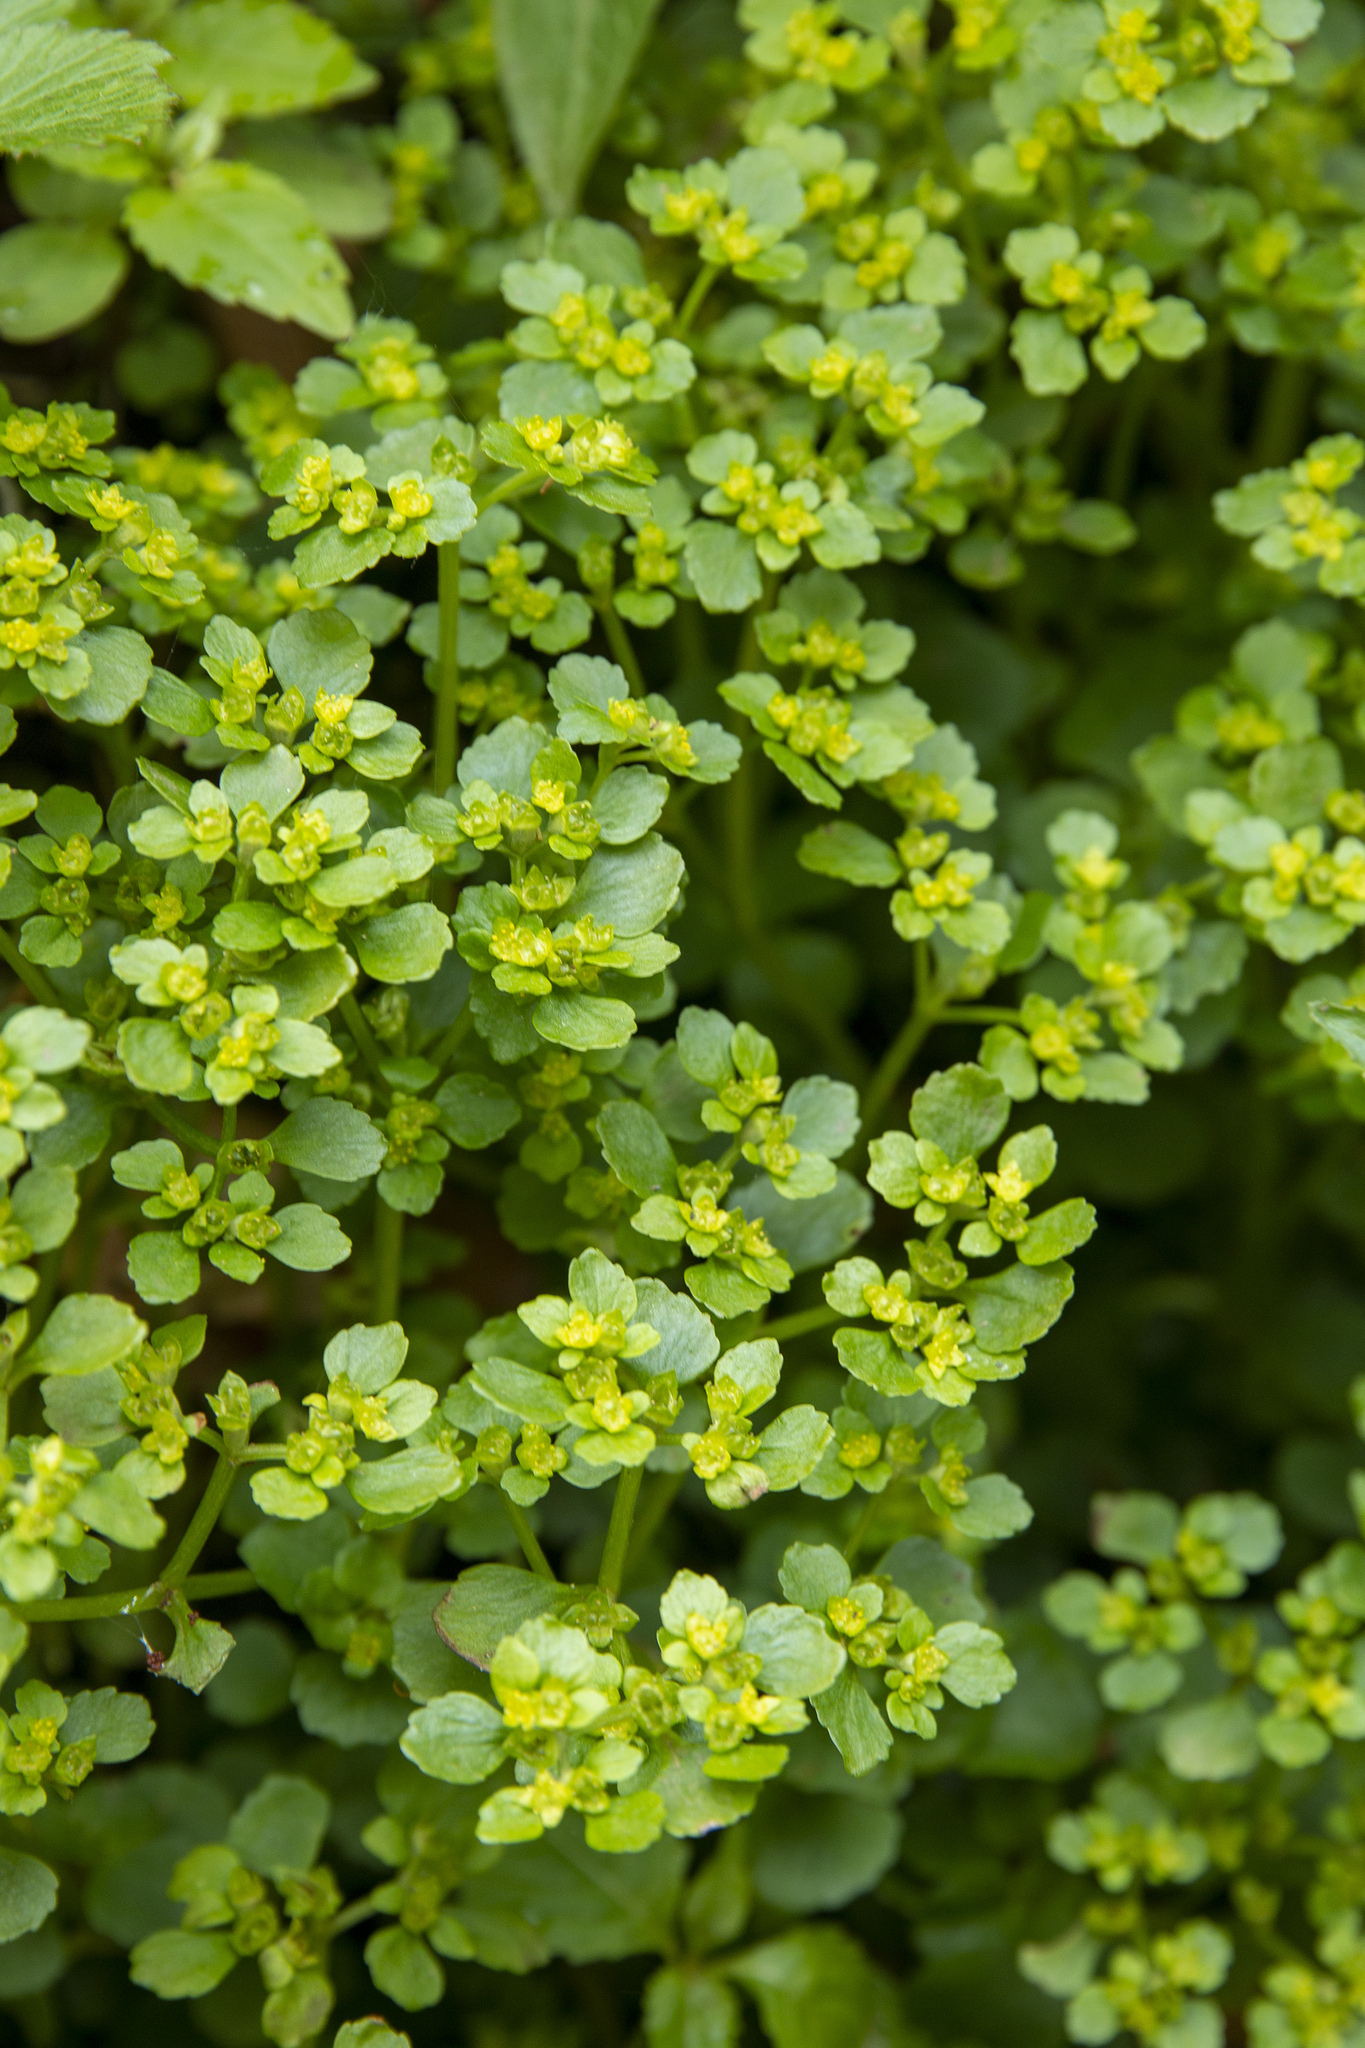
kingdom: Plantae
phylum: Tracheophyta
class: Magnoliopsida
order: Saxifragales
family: Saxifragaceae
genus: Chrysosplenium
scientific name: Chrysosplenium oppositifolium
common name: Opposite-leaved golden-saxifrage
